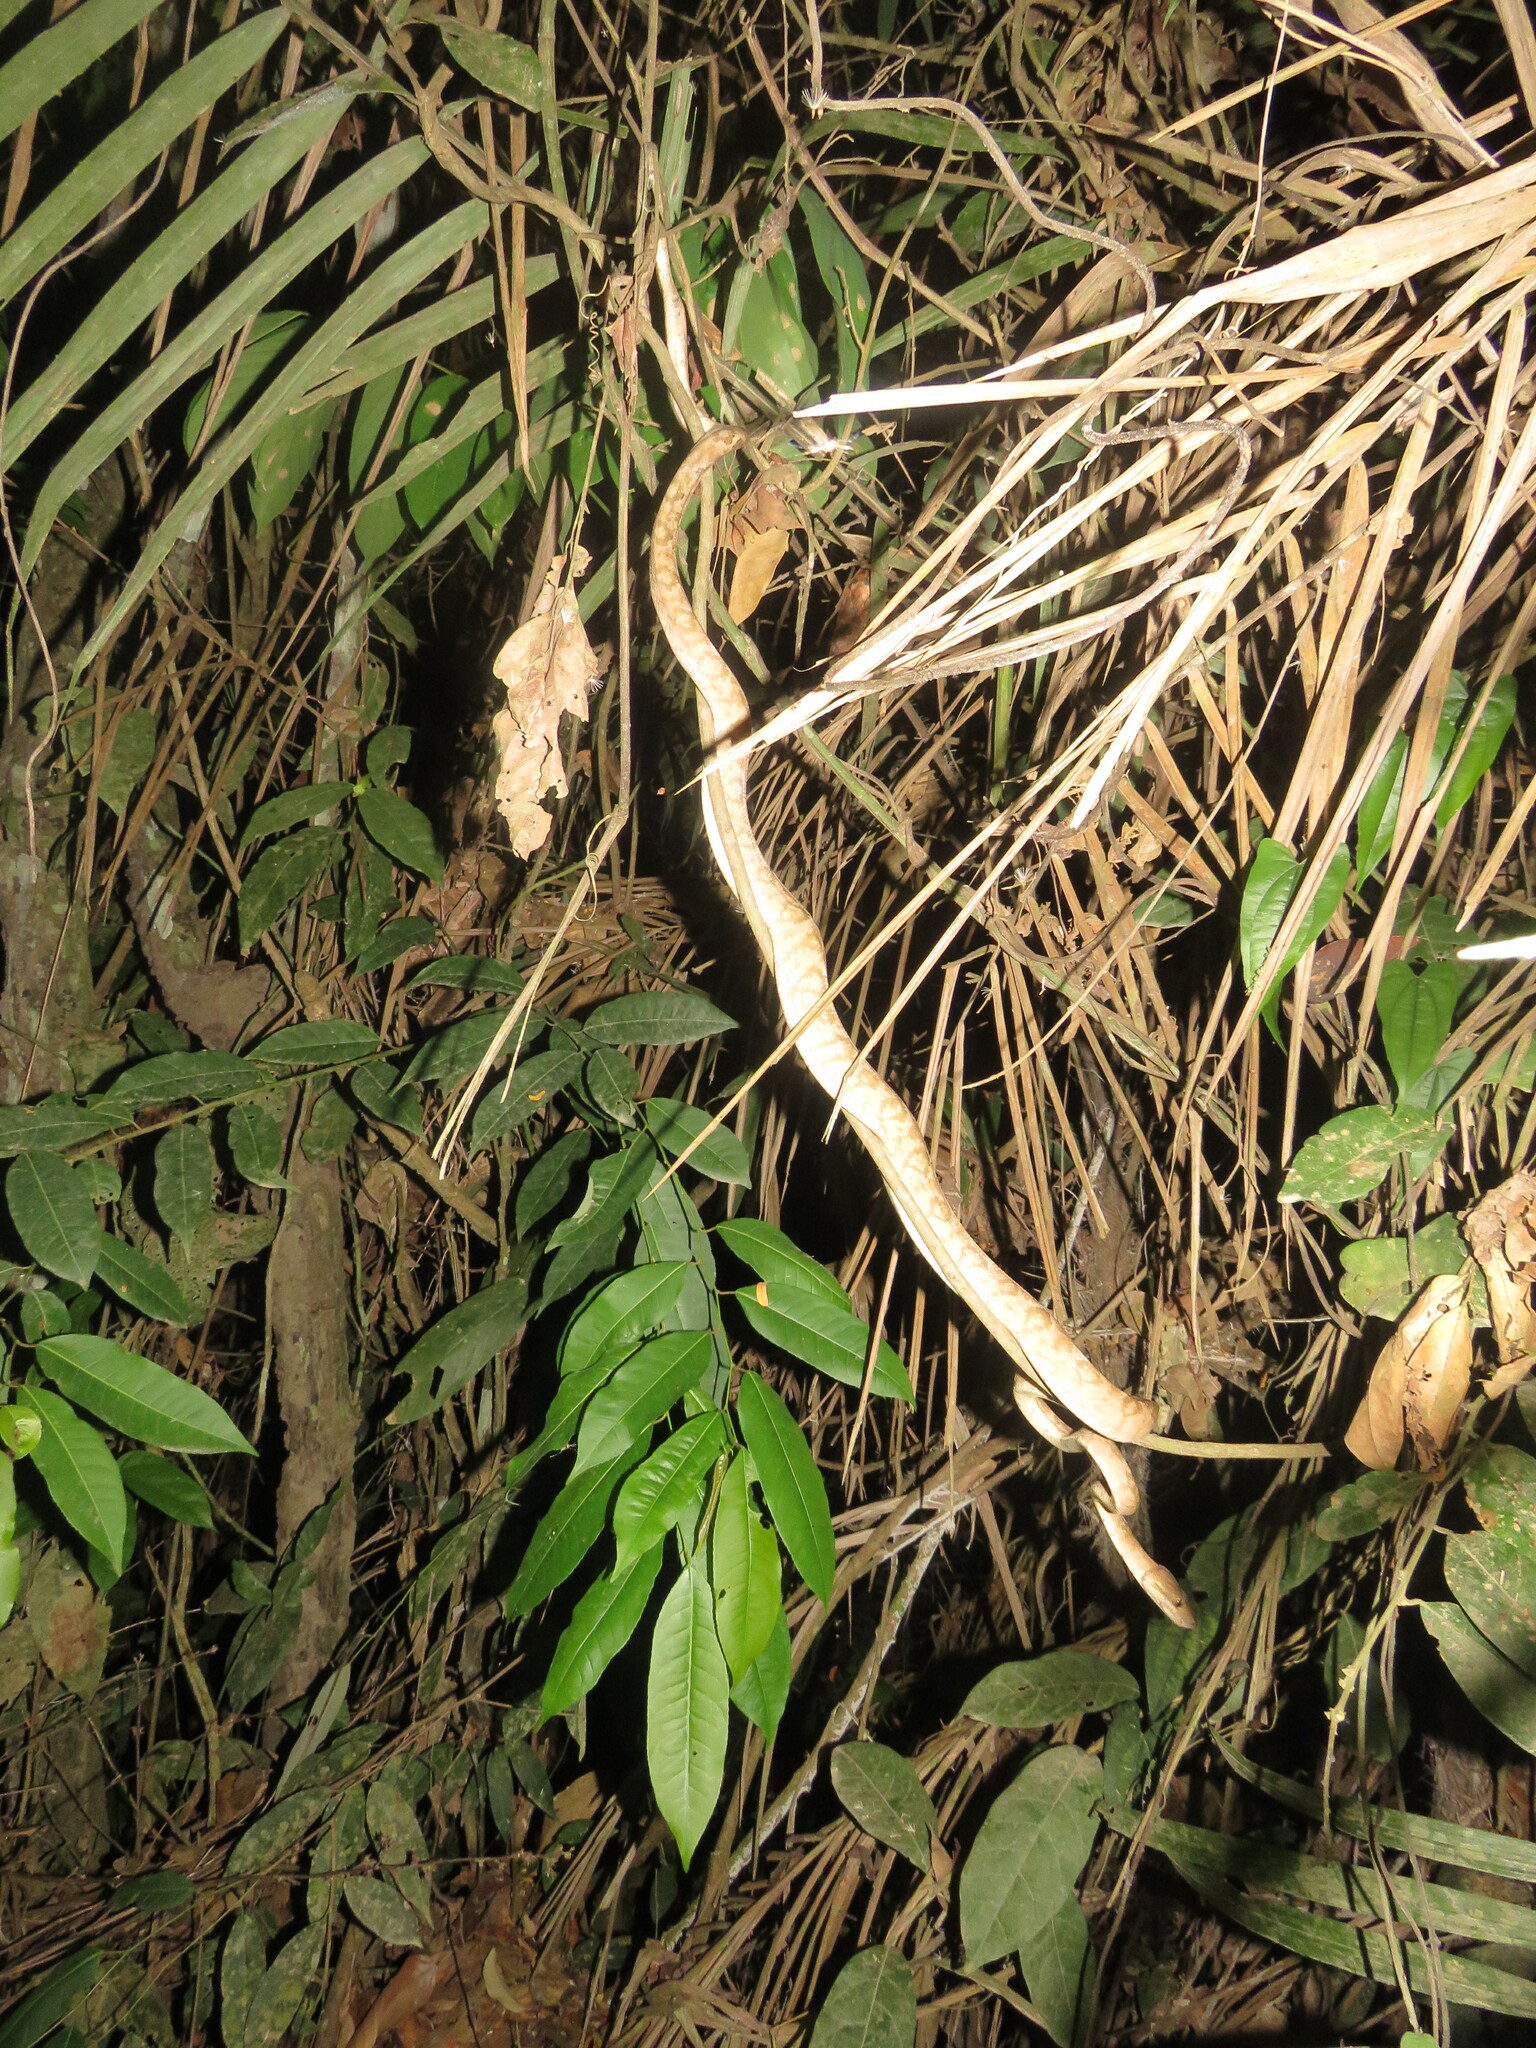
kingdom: Animalia
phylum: Chordata
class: Squamata
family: Boidae
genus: Corallus
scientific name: Corallus hortulana
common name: Garden tree boa
